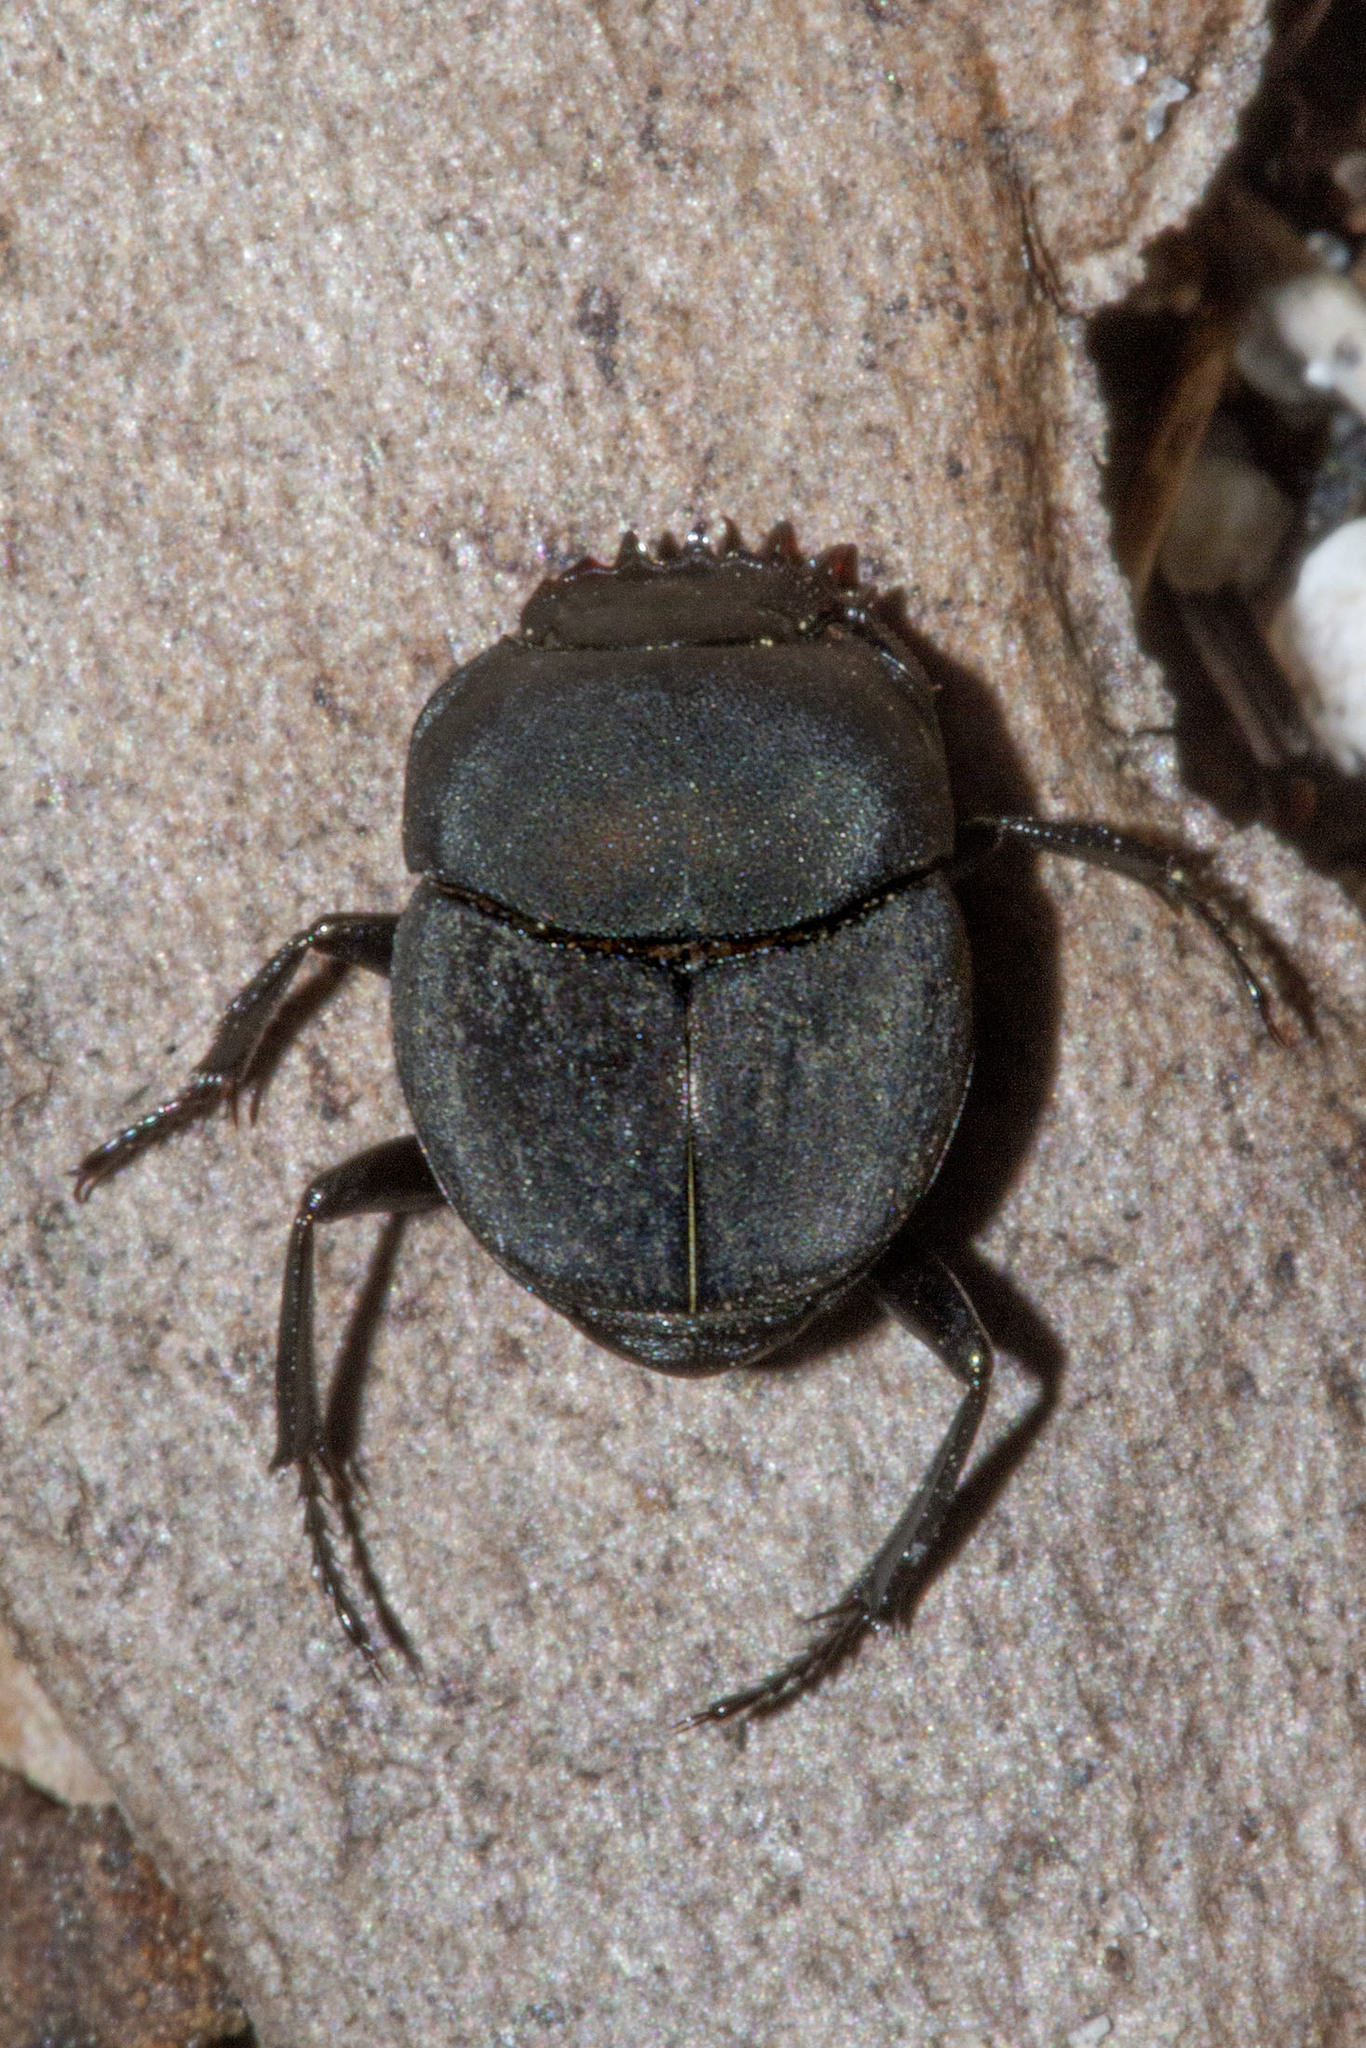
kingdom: Animalia
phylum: Arthropoda
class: Insecta
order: Coleoptera
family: Scarabaeidae
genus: Melanocanthon
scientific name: Melanocanthon bispinatus
